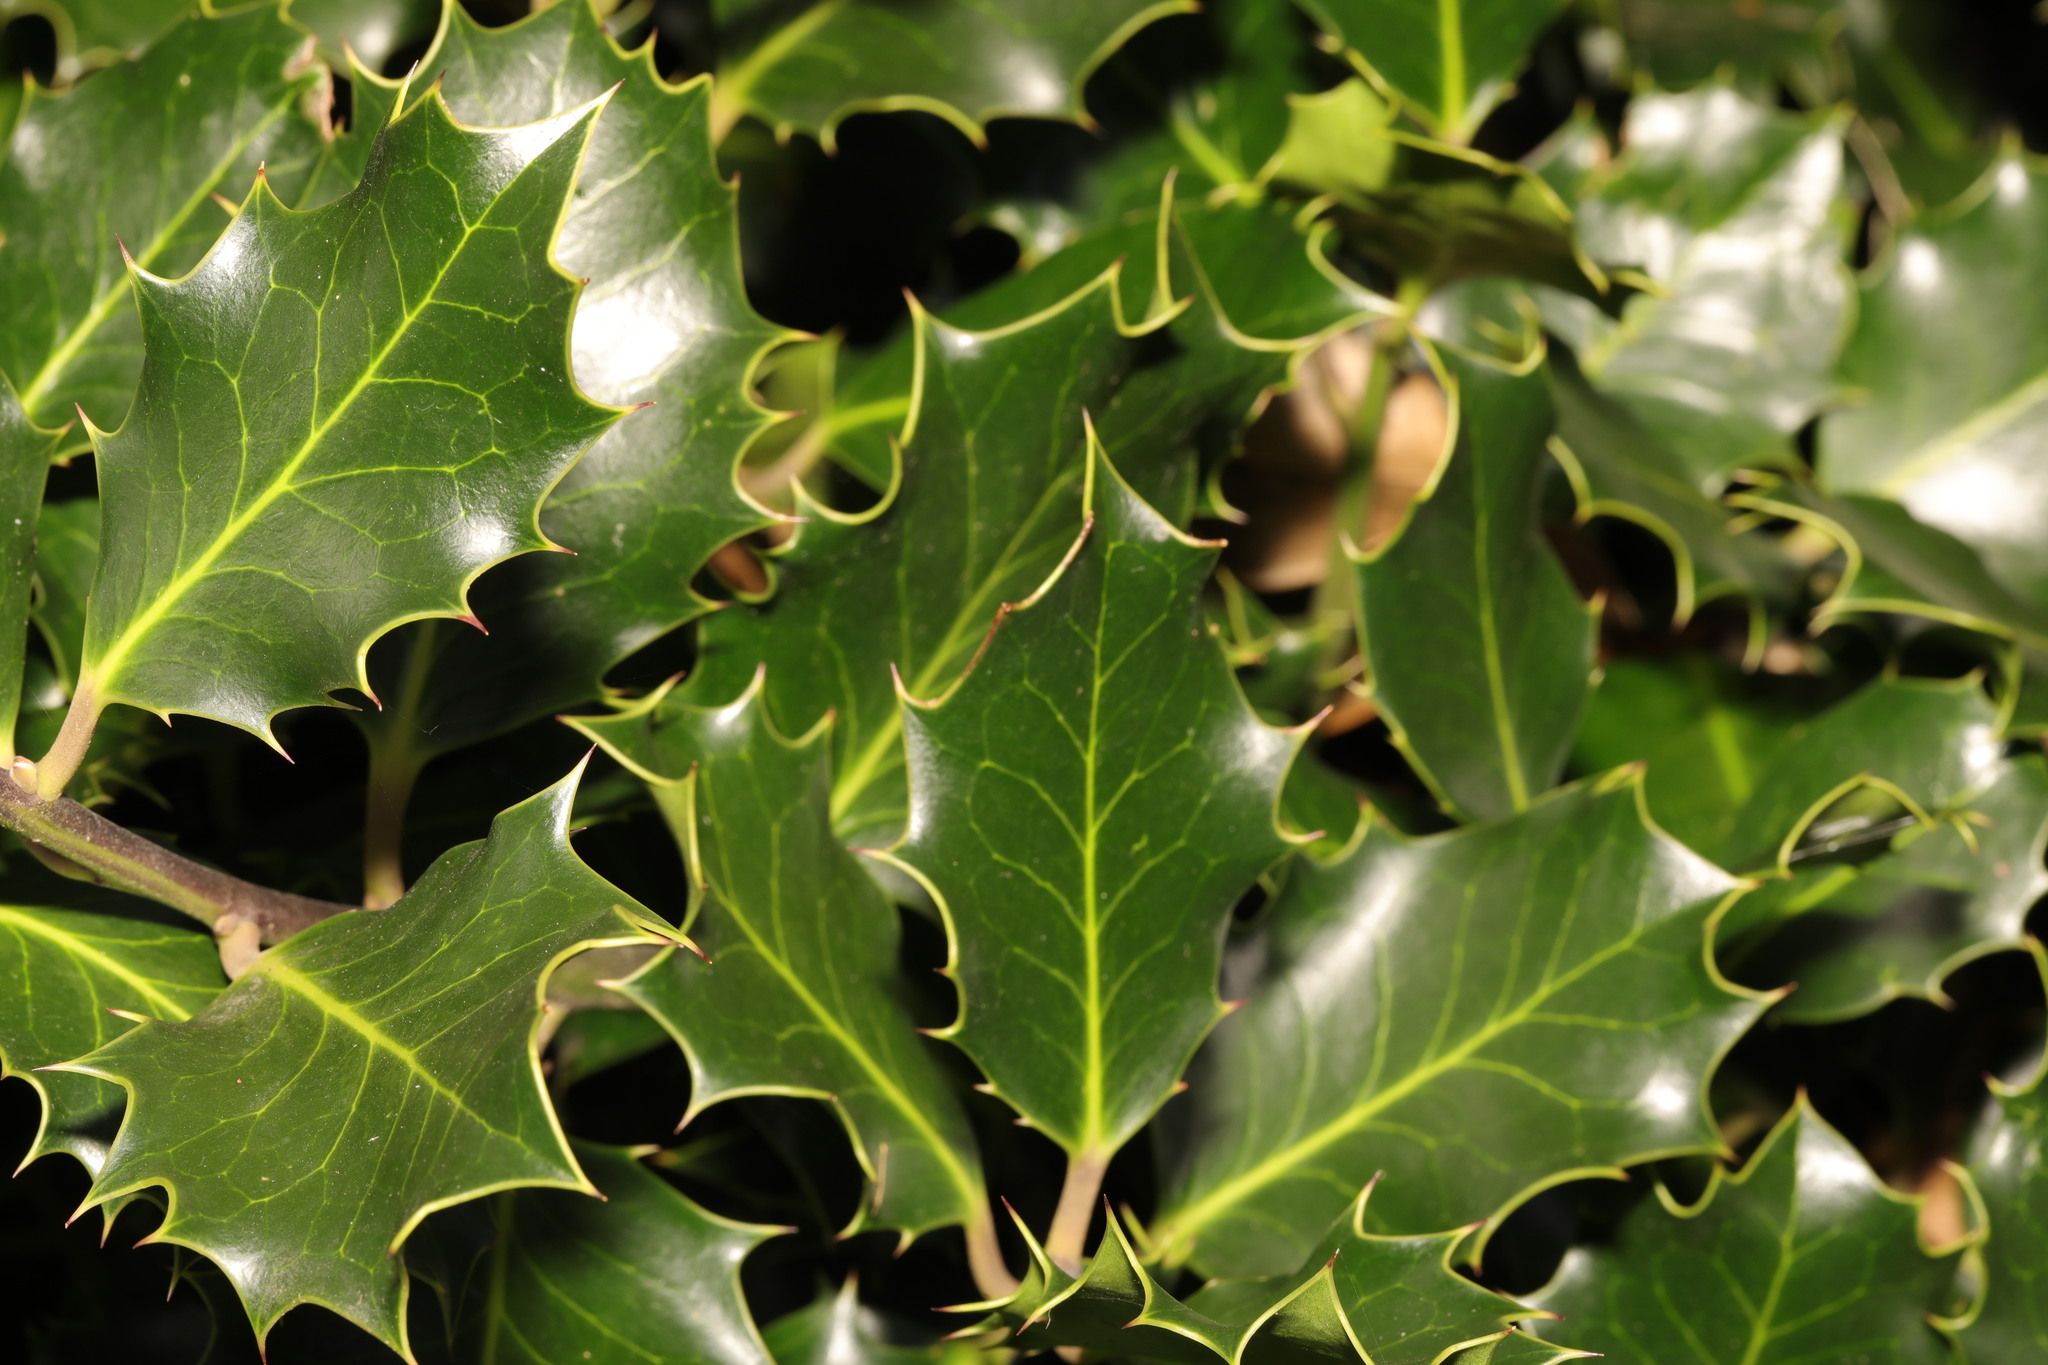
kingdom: Plantae
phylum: Tracheophyta
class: Magnoliopsida
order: Aquifoliales
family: Aquifoliaceae
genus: Ilex
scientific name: Ilex aquifolium
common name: English holly
